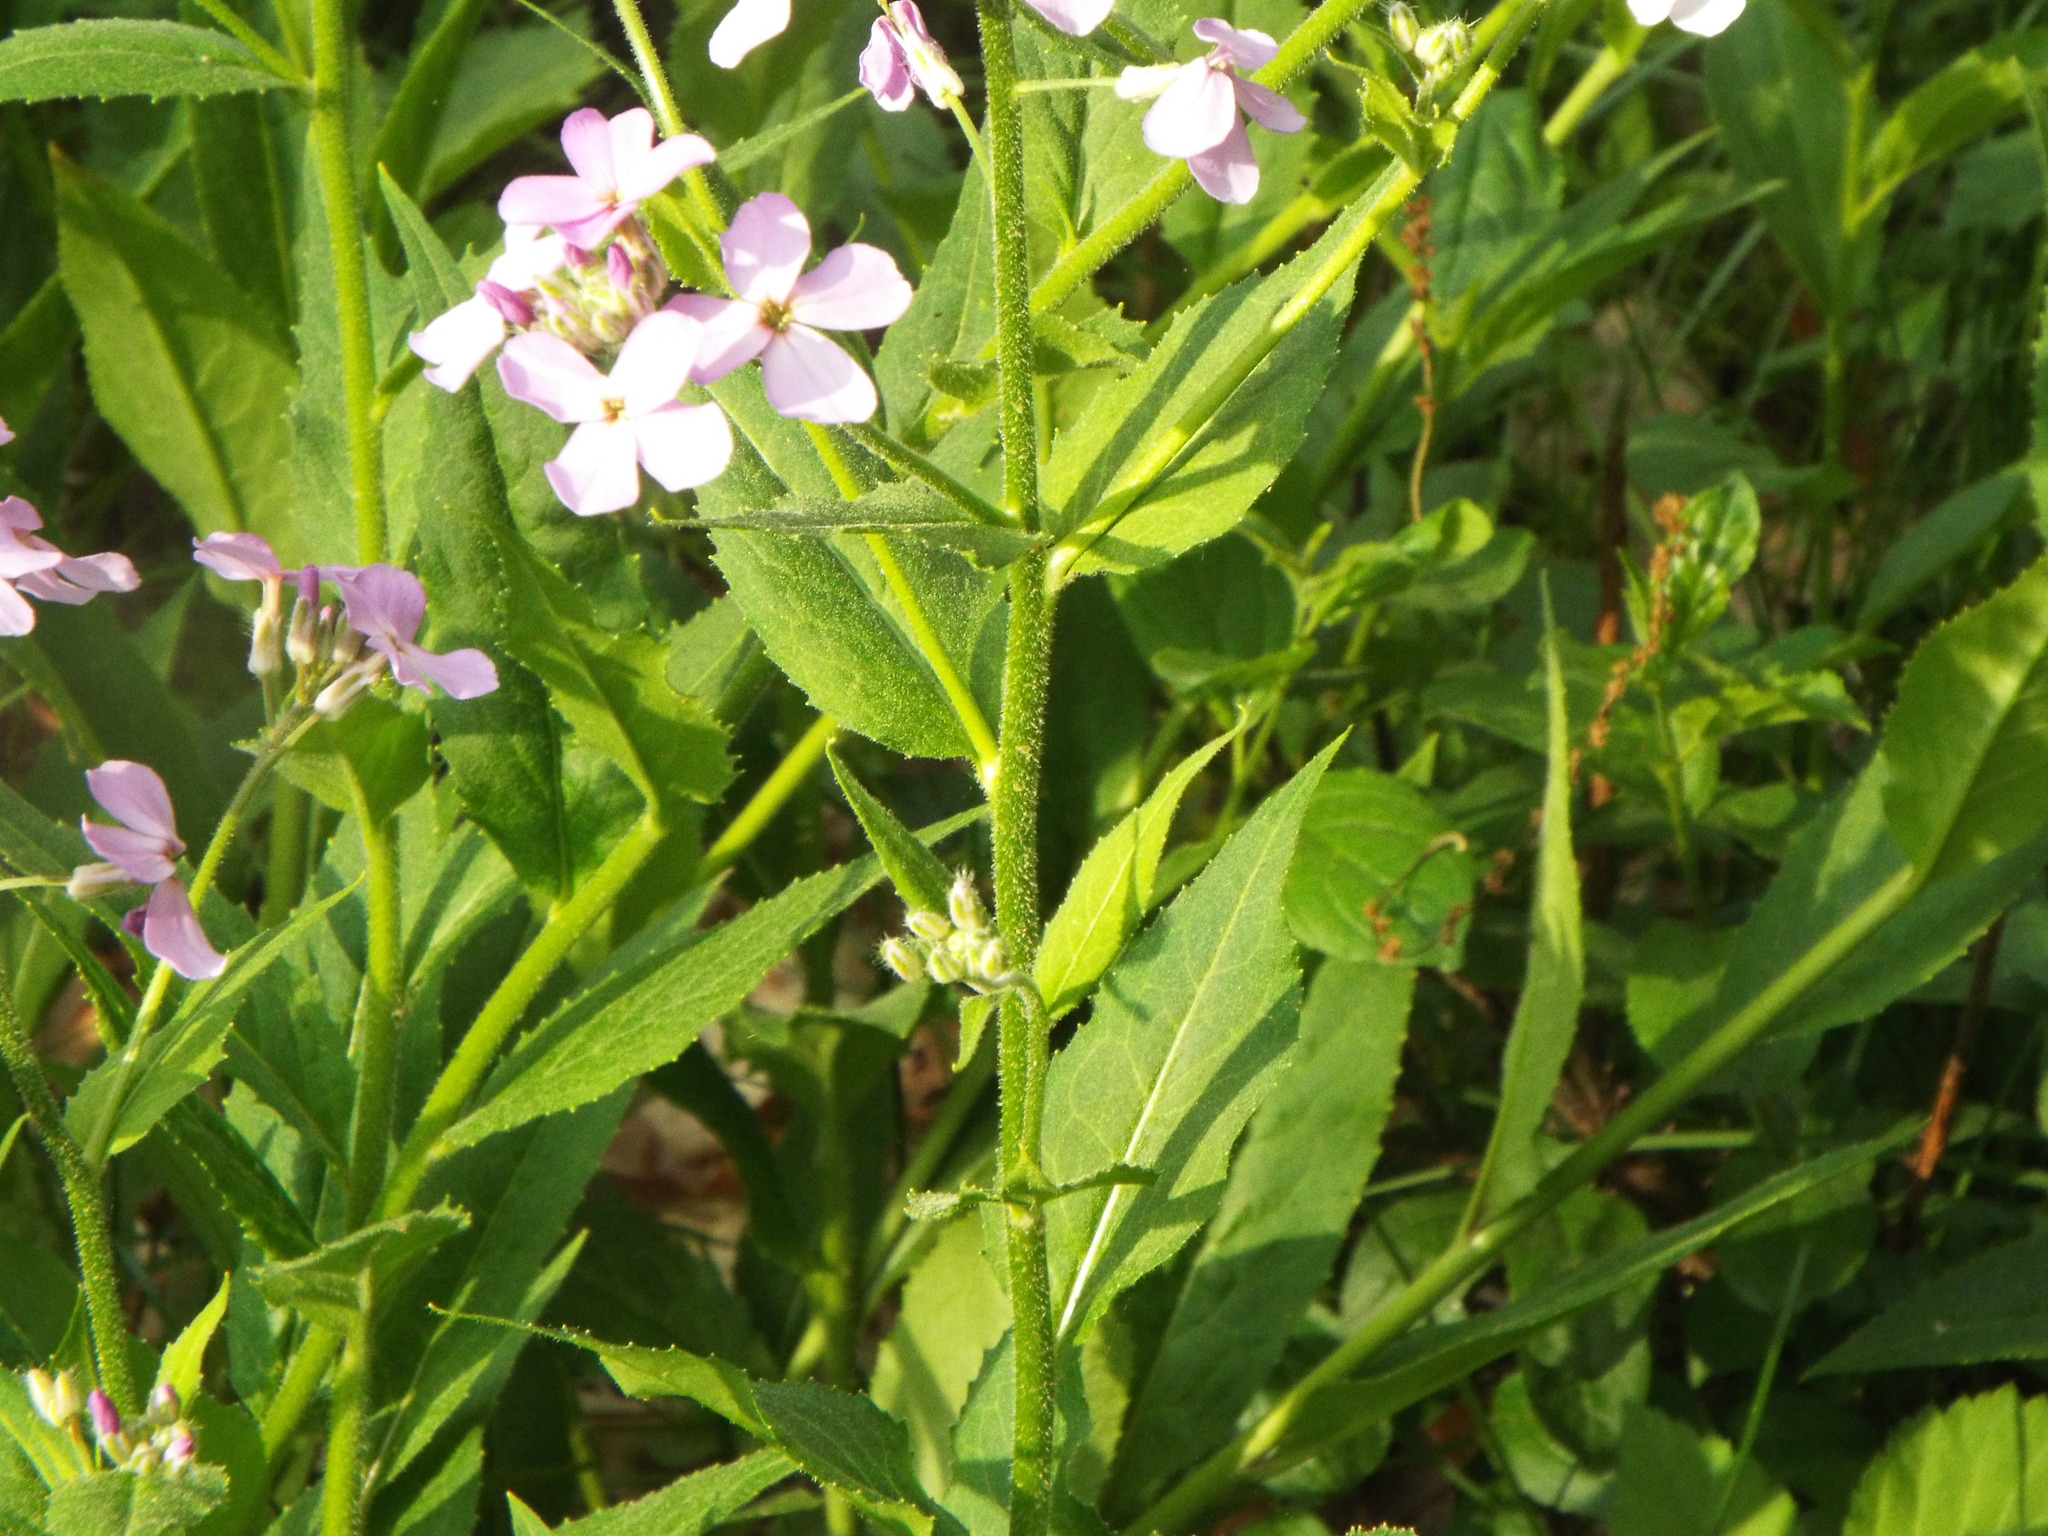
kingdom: Plantae
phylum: Tracheophyta
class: Magnoliopsida
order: Brassicales
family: Brassicaceae
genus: Hesperis
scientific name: Hesperis matronalis
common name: Dame's-violet
